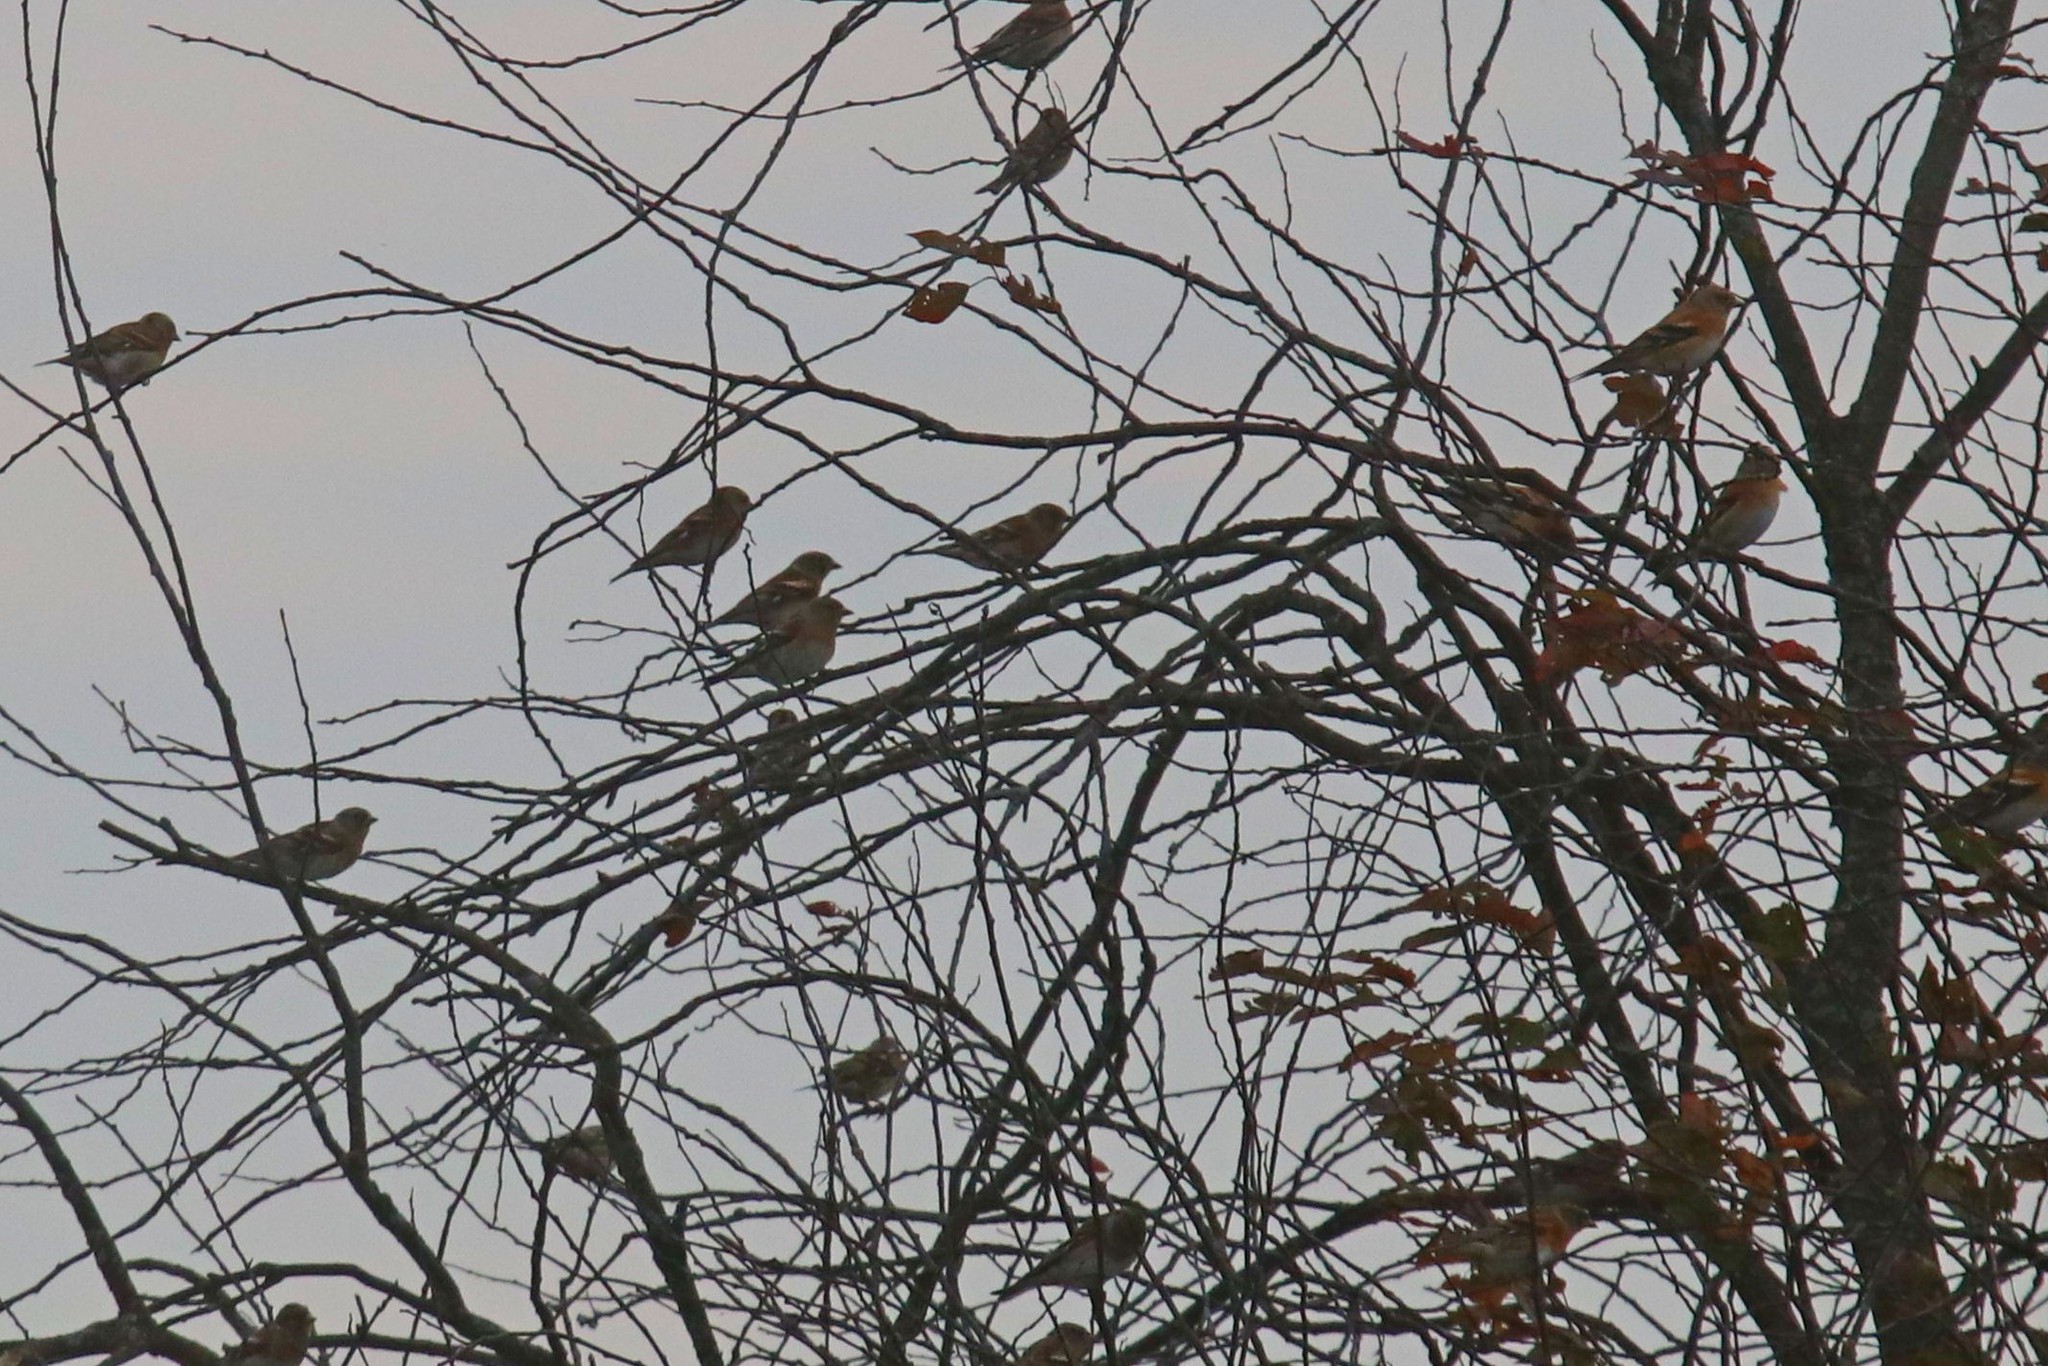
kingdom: Animalia
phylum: Chordata
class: Aves
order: Passeriformes
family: Fringillidae
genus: Fringilla
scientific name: Fringilla montifringilla
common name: Brambling
